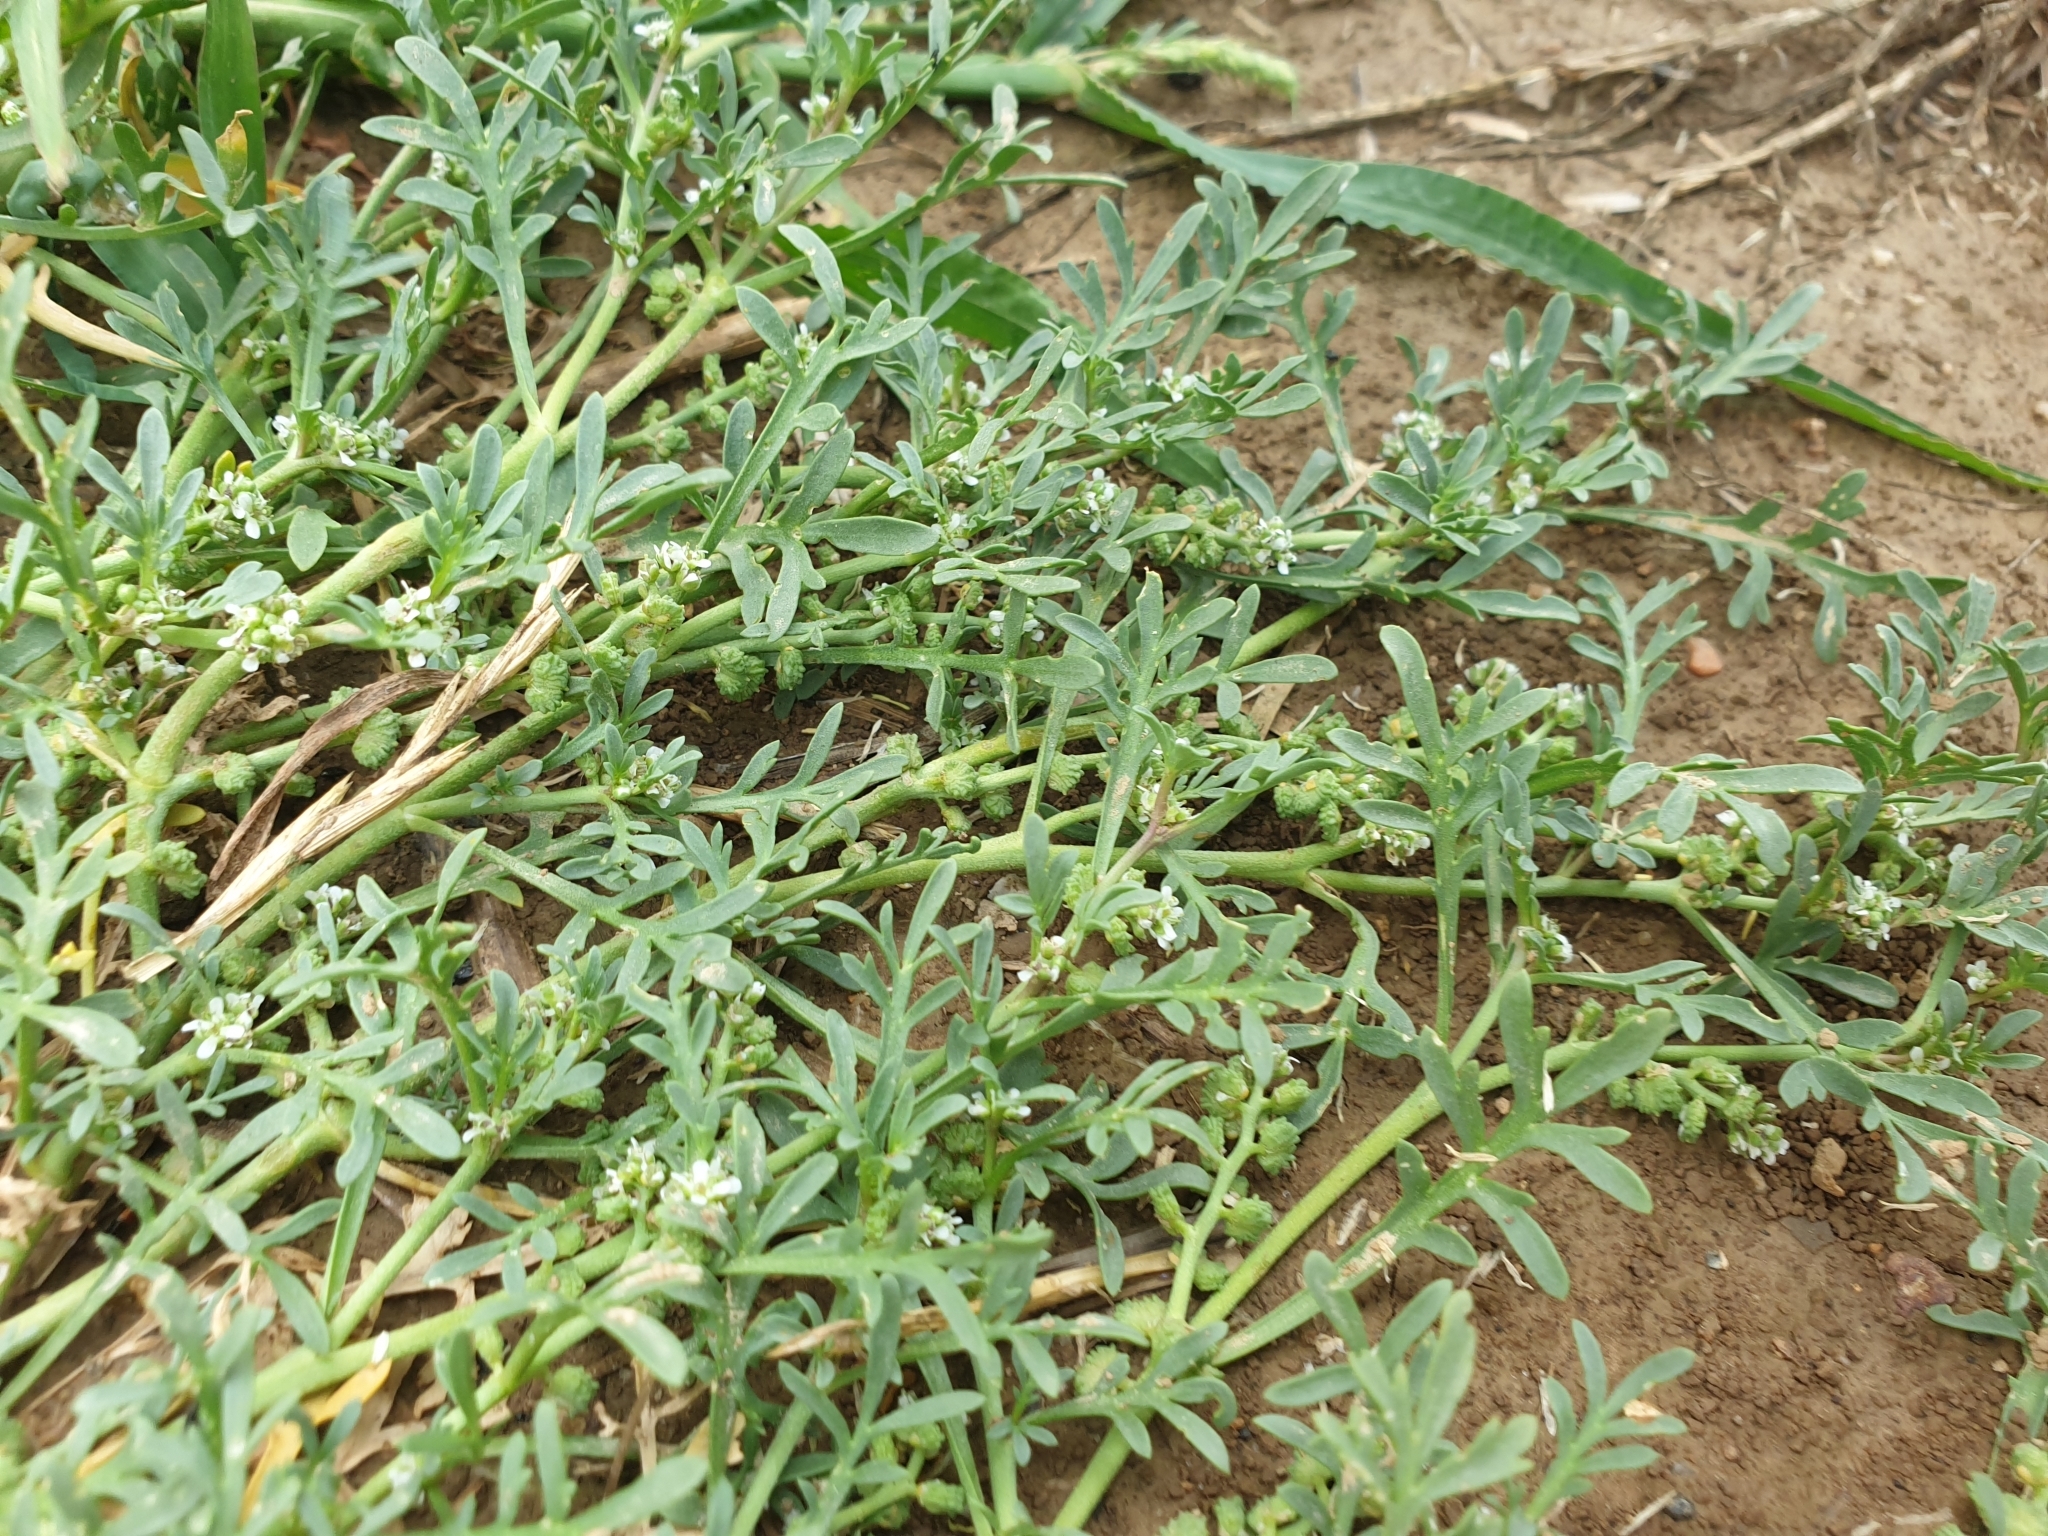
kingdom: Plantae
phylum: Tracheophyta
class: Magnoliopsida
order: Brassicales
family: Brassicaceae
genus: Lepidium
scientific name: Lepidium coronopus
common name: Greater swinecress
